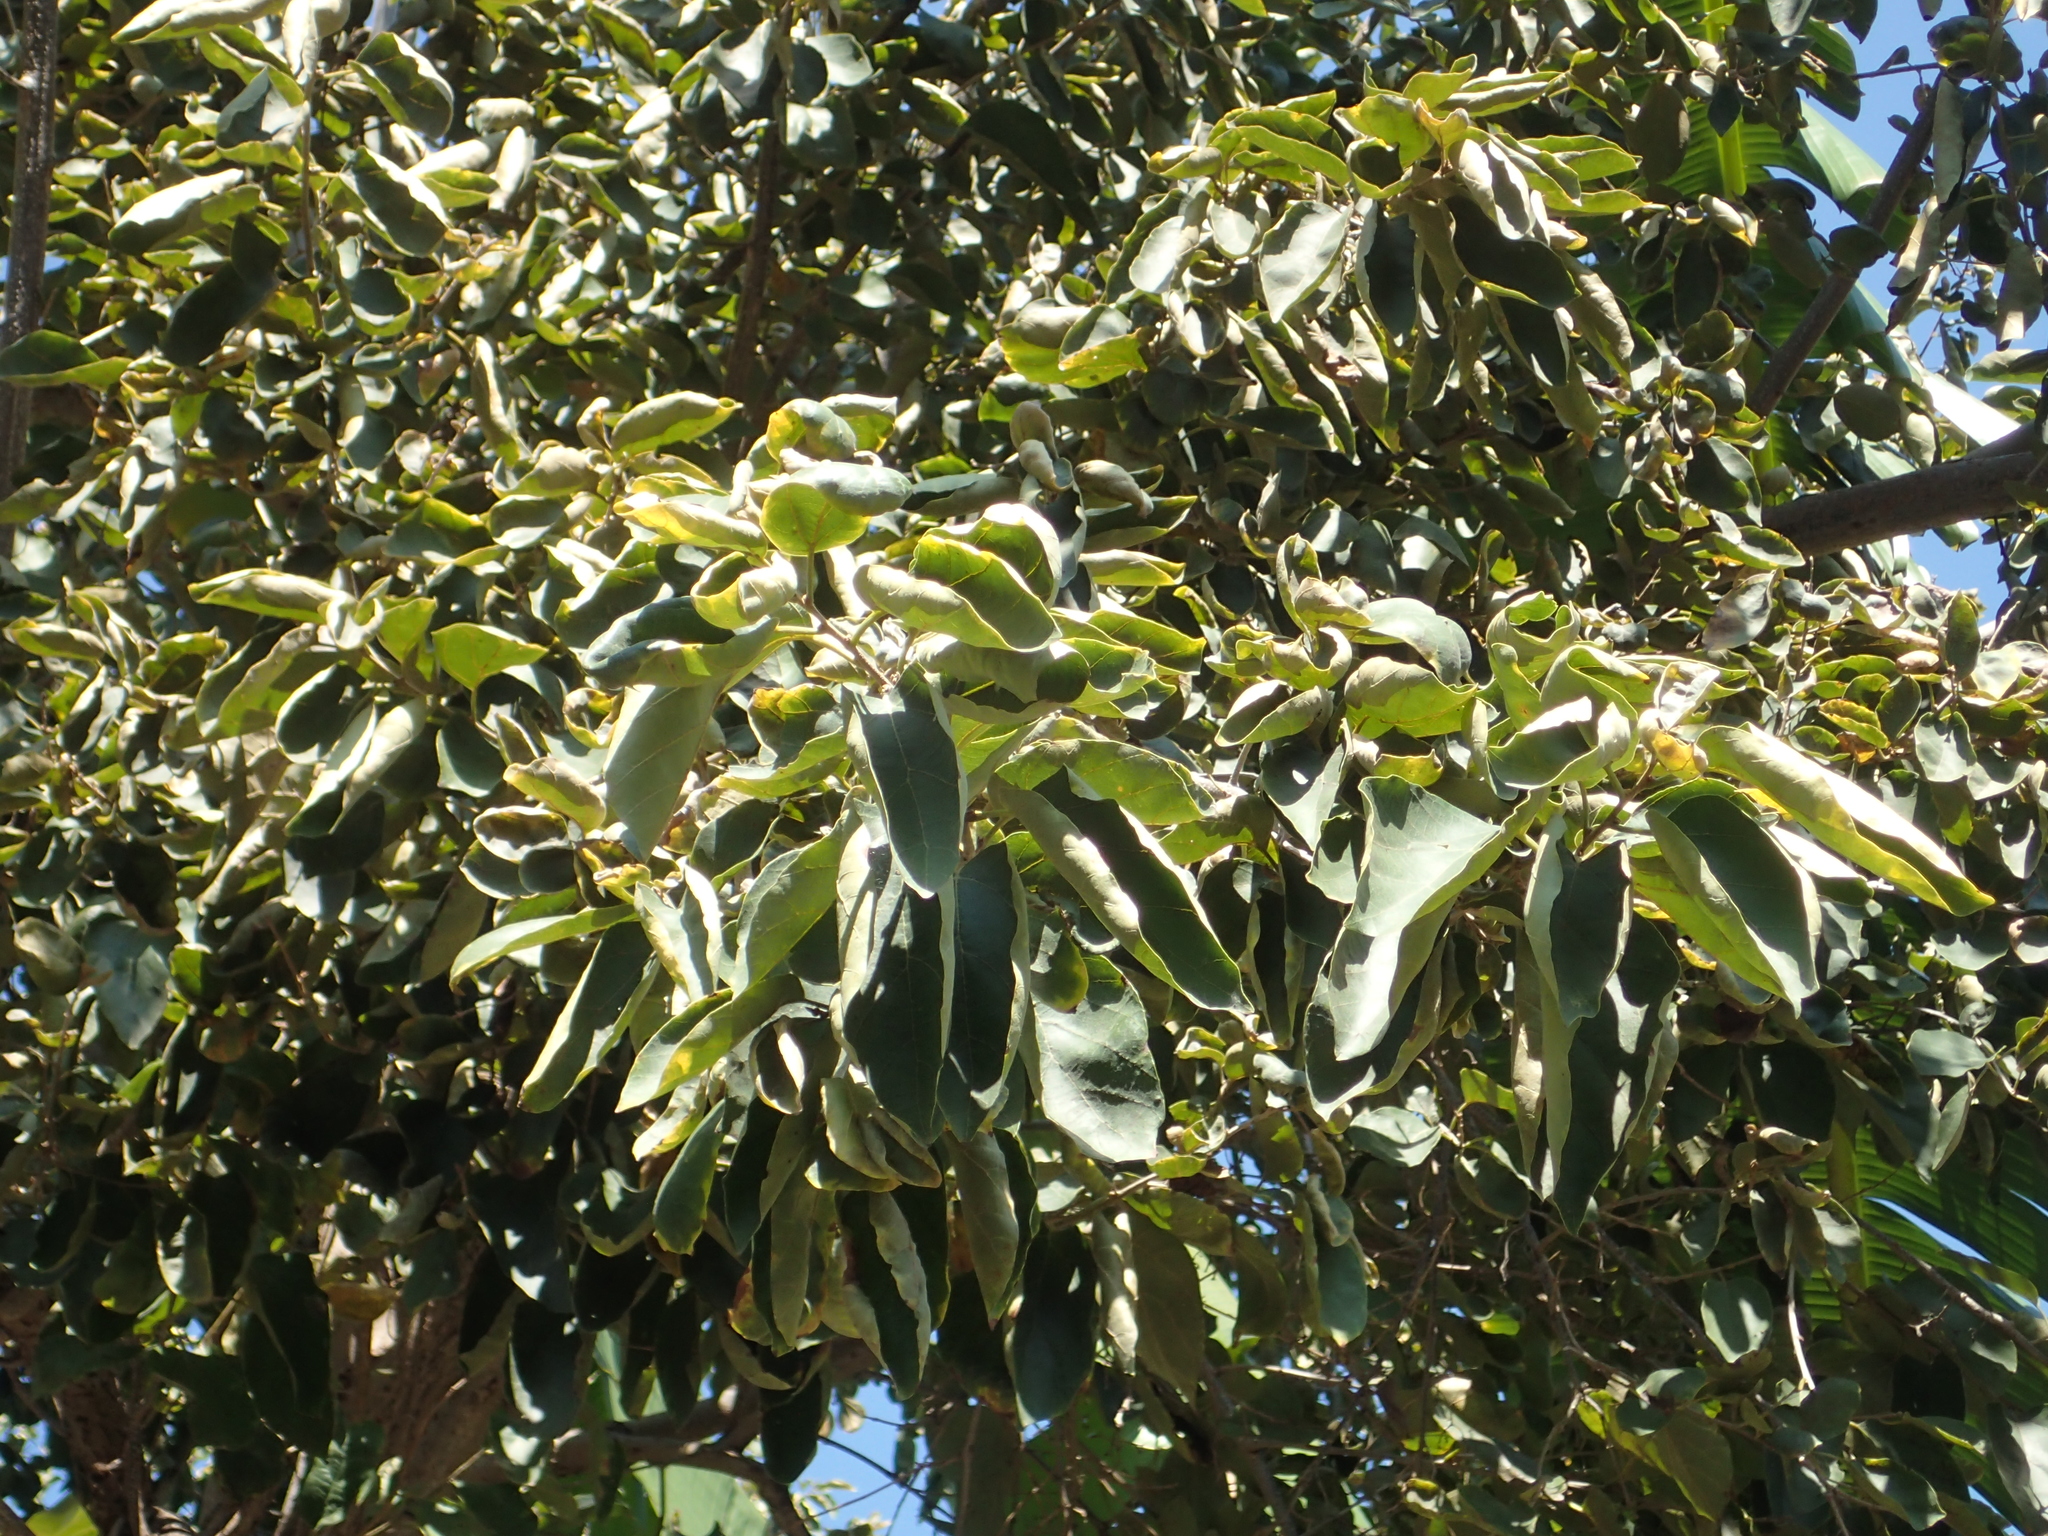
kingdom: Plantae
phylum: Tracheophyta
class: Magnoliopsida
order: Boraginales
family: Cordiaceae
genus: Cordia
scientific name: Cordia dichotoma
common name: Fragrant manjack
